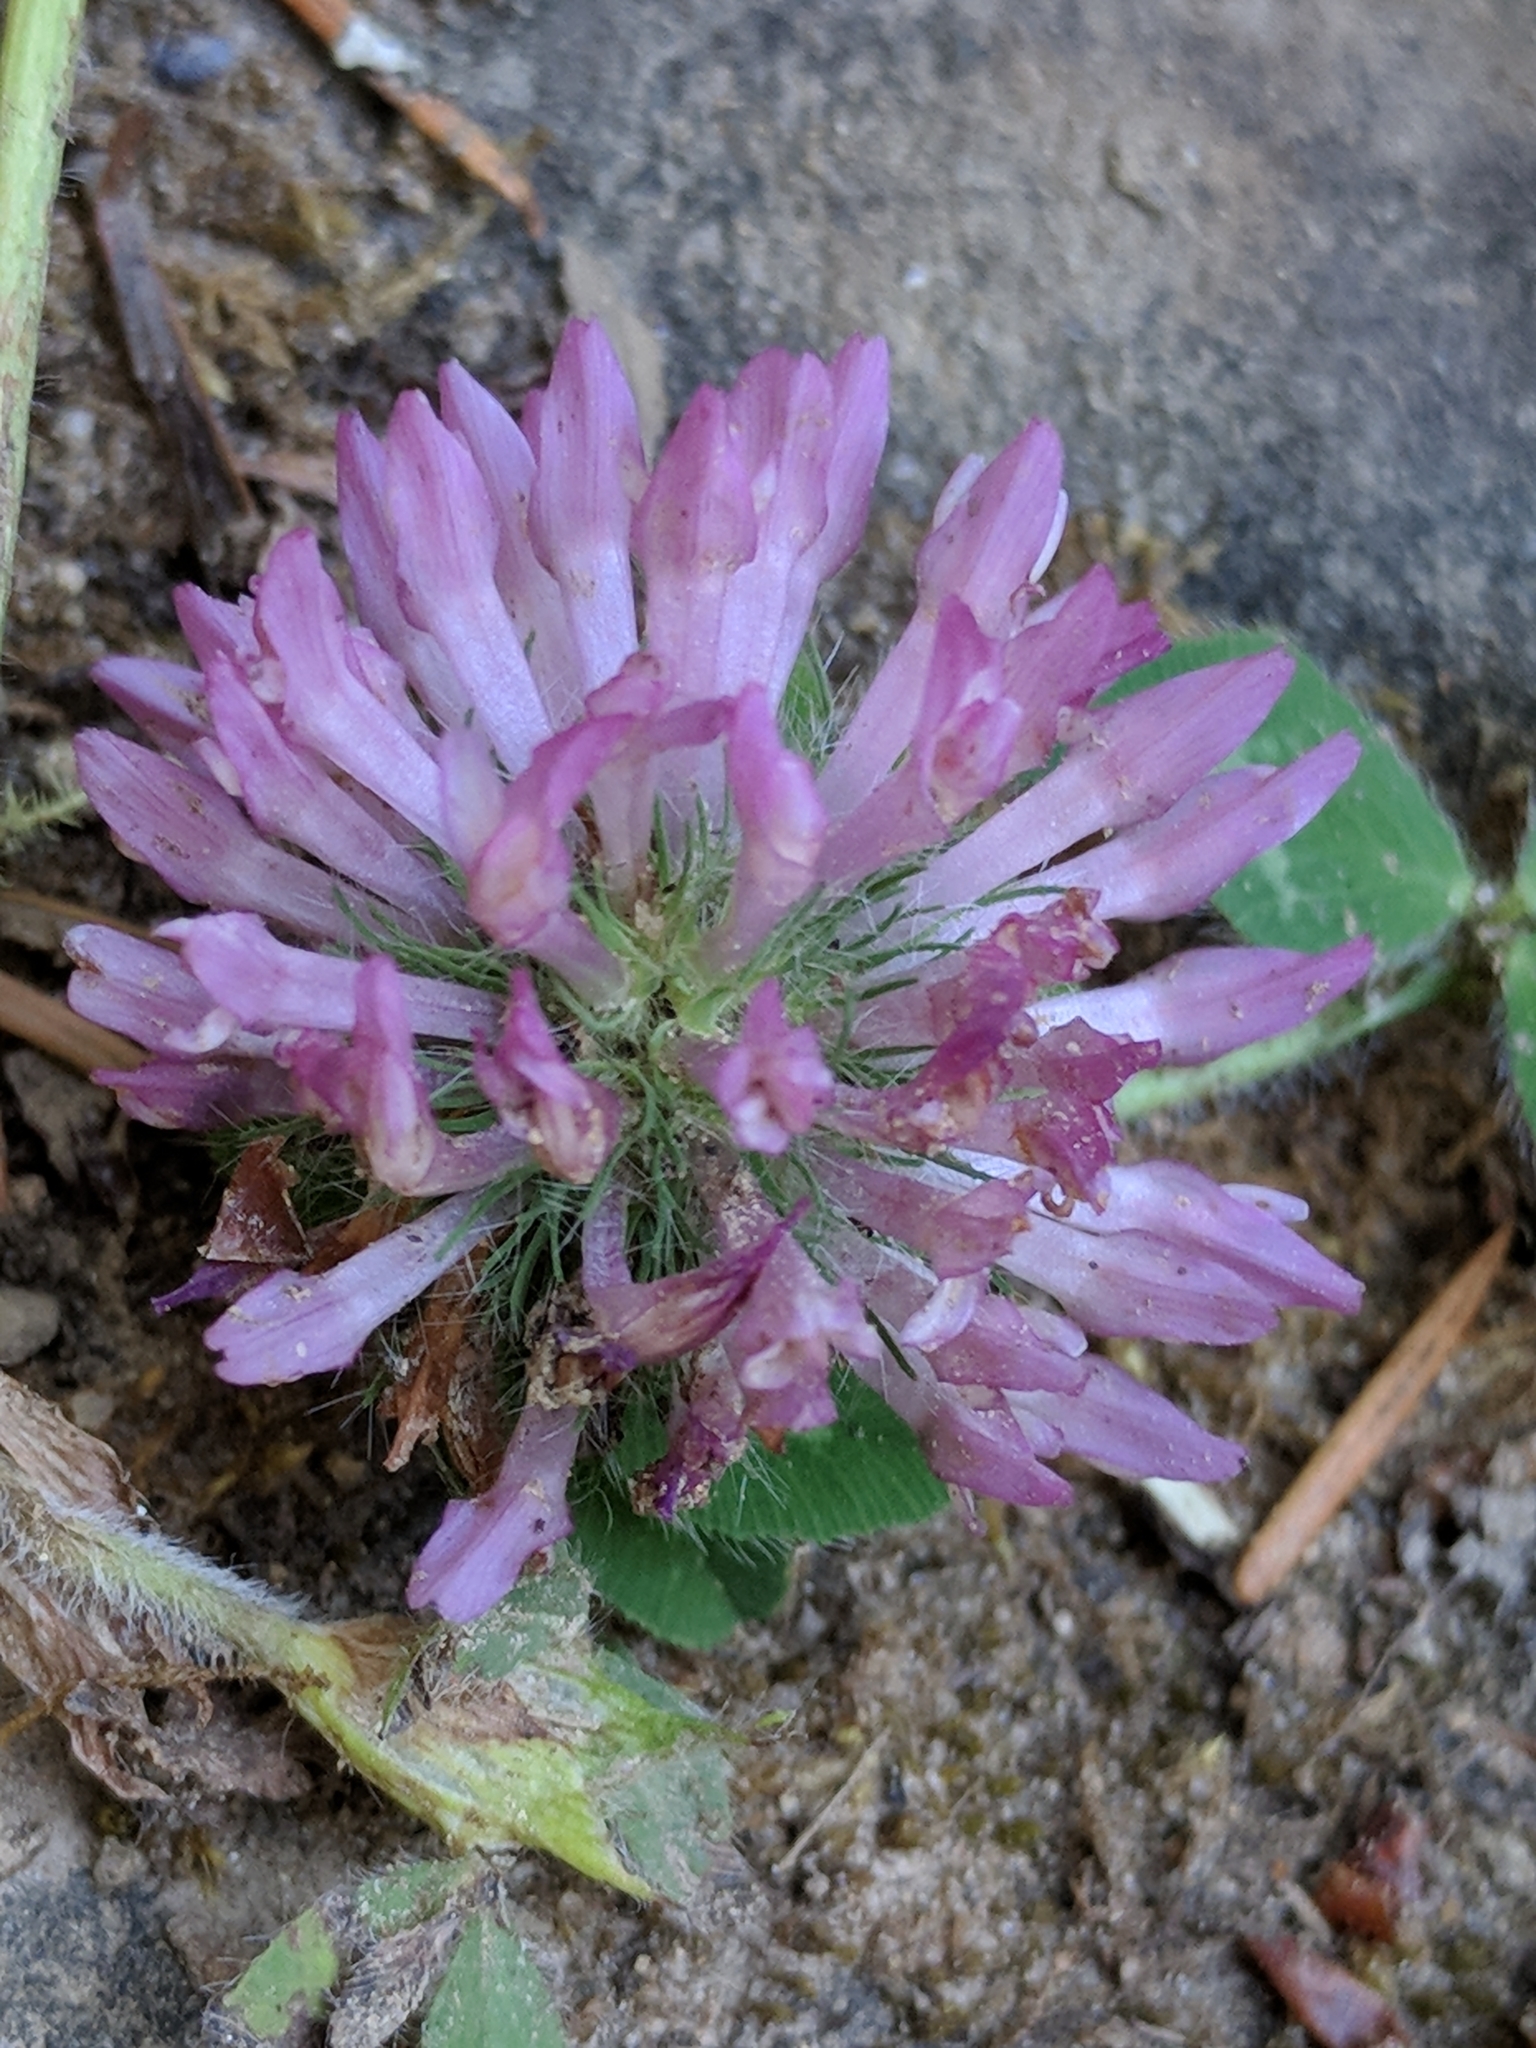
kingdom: Plantae
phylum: Tracheophyta
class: Magnoliopsida
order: Fabales
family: Fabaceae
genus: Trifolium
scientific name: Trifolium pratense
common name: Red clover
